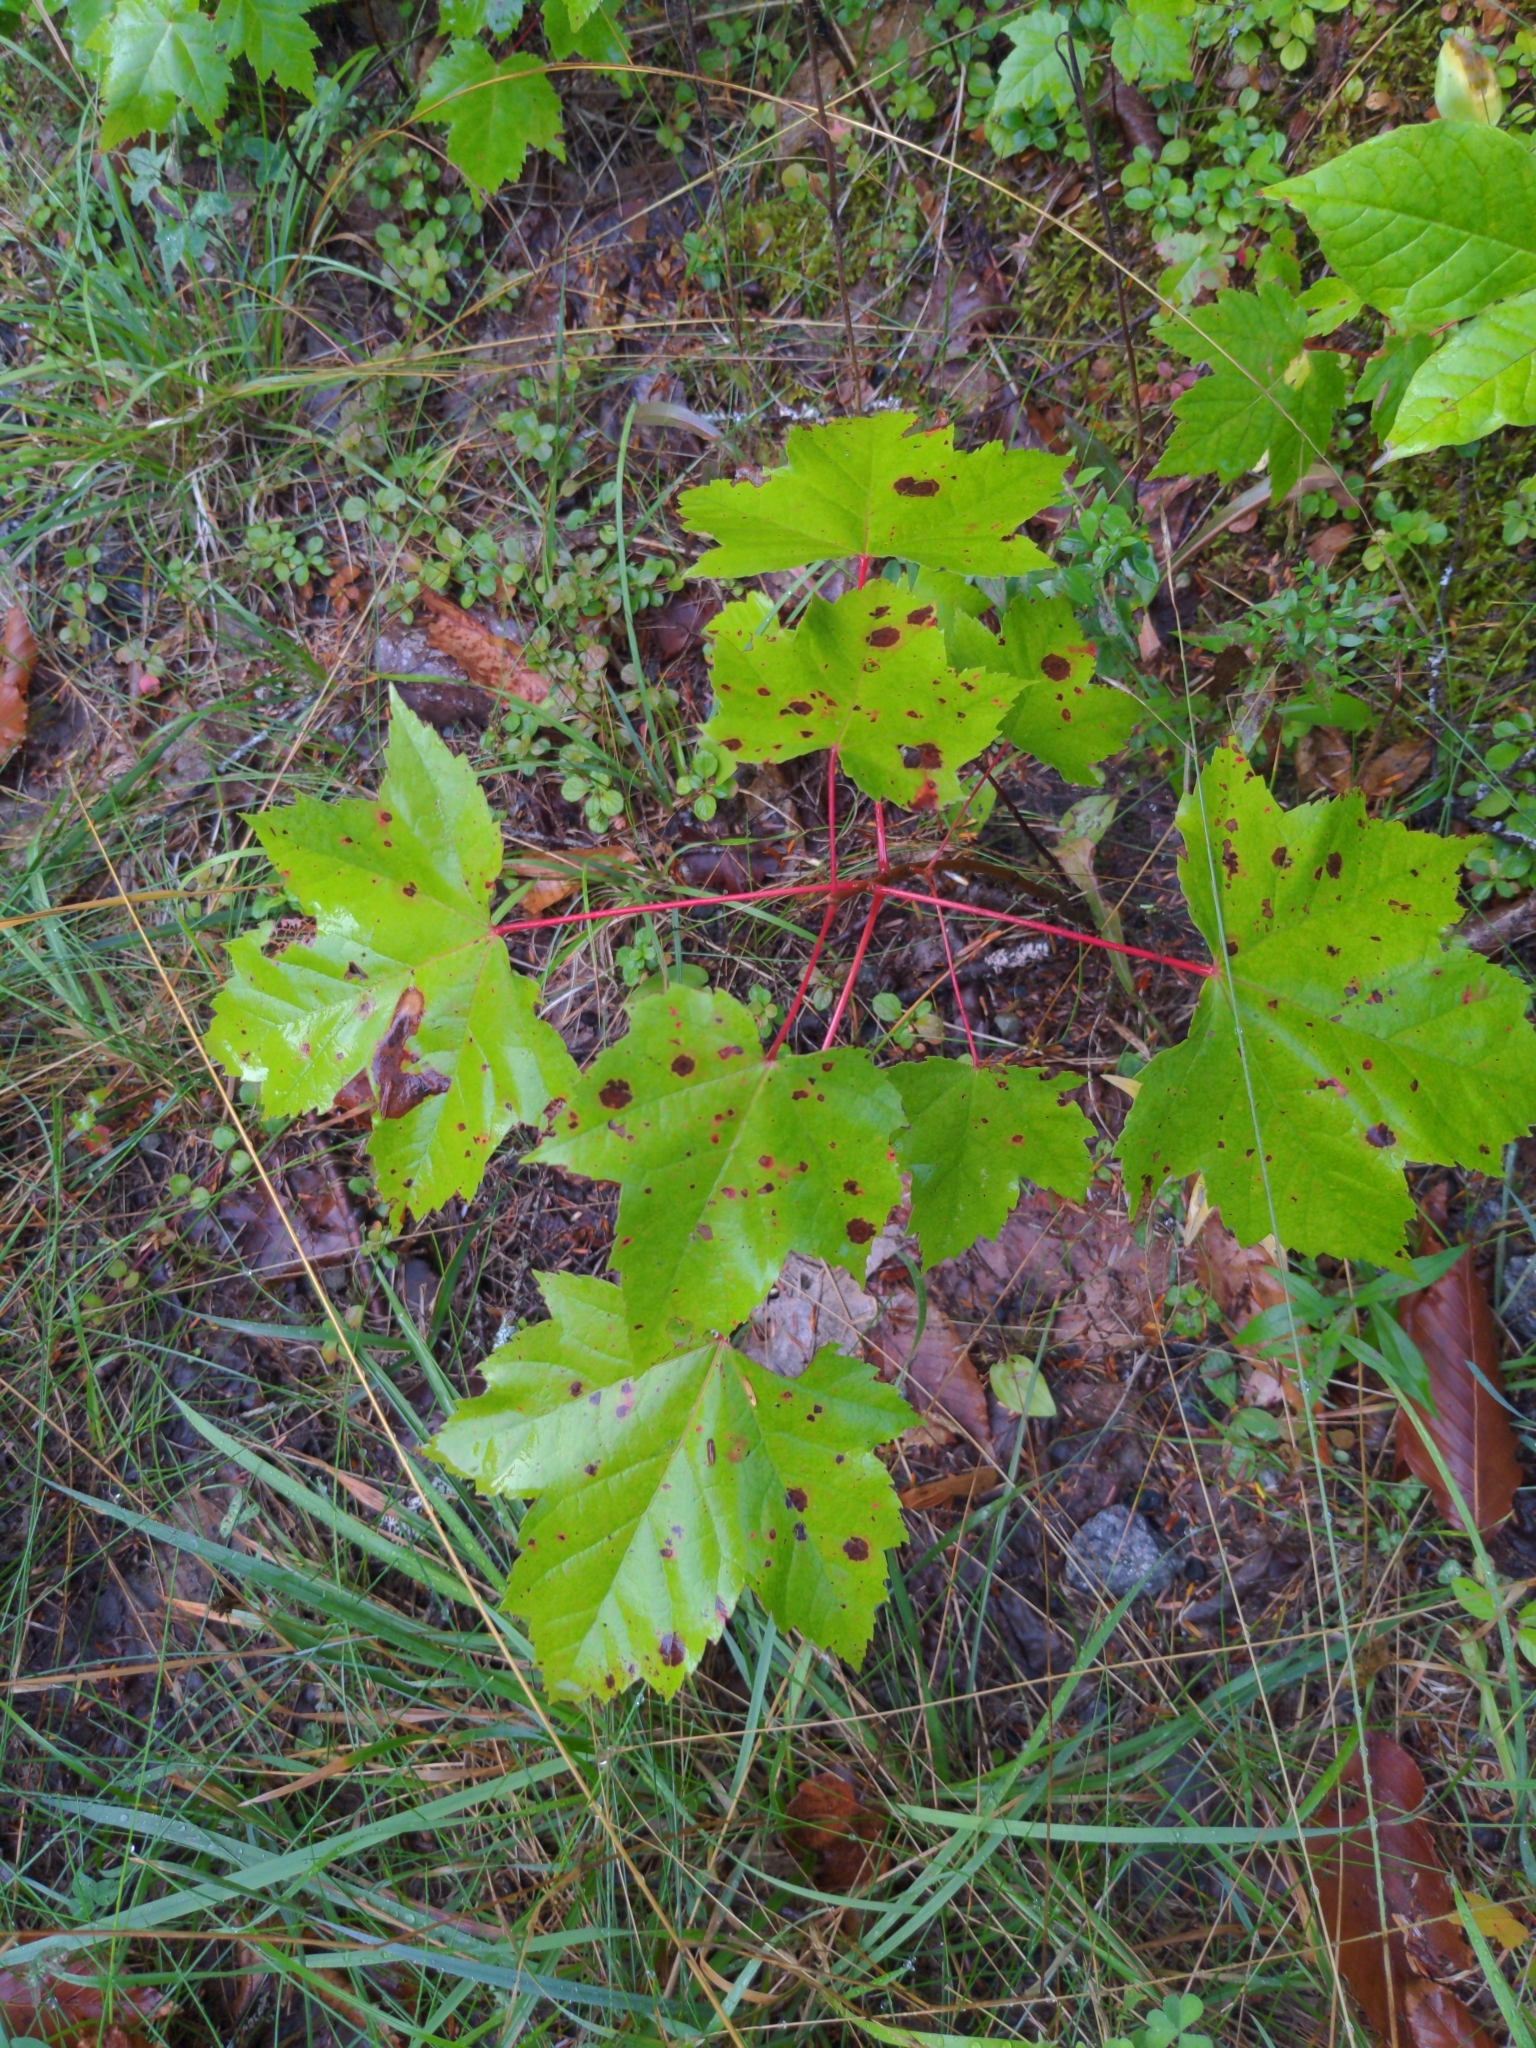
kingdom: Plantae
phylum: Tracheophyta
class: Magnoliopsida
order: Sapindales
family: Sapindaceae
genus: Acer
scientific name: Acer rubrum
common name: Red maple
